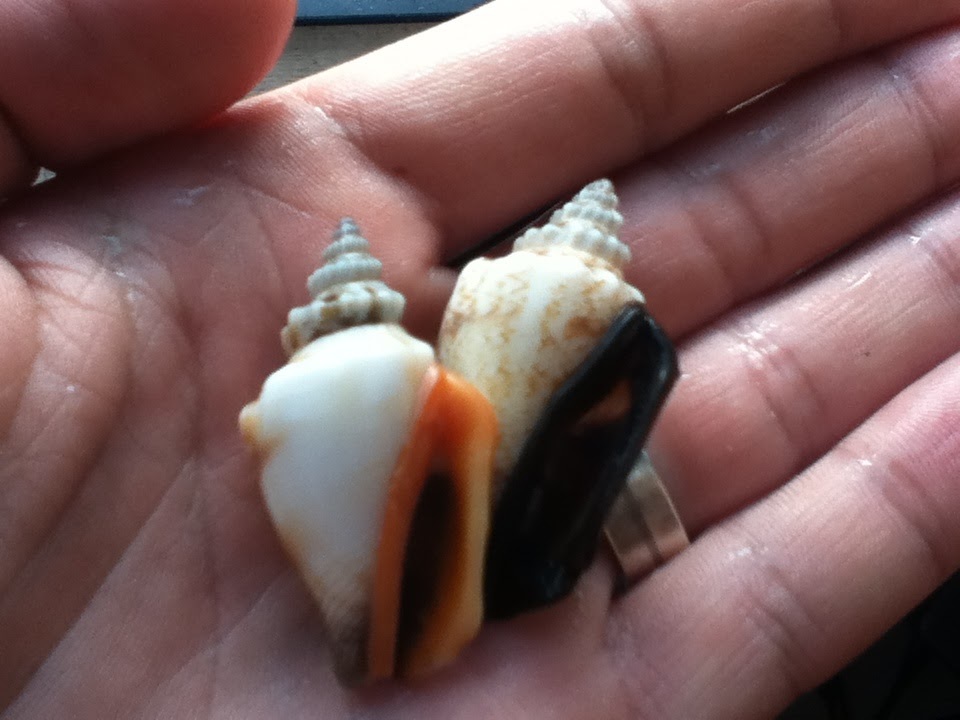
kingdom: Animalia
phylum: Mollusca
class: Gastropoda
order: Littorinimorpha
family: Strombidae
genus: Canarium
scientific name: Canarium urceus
